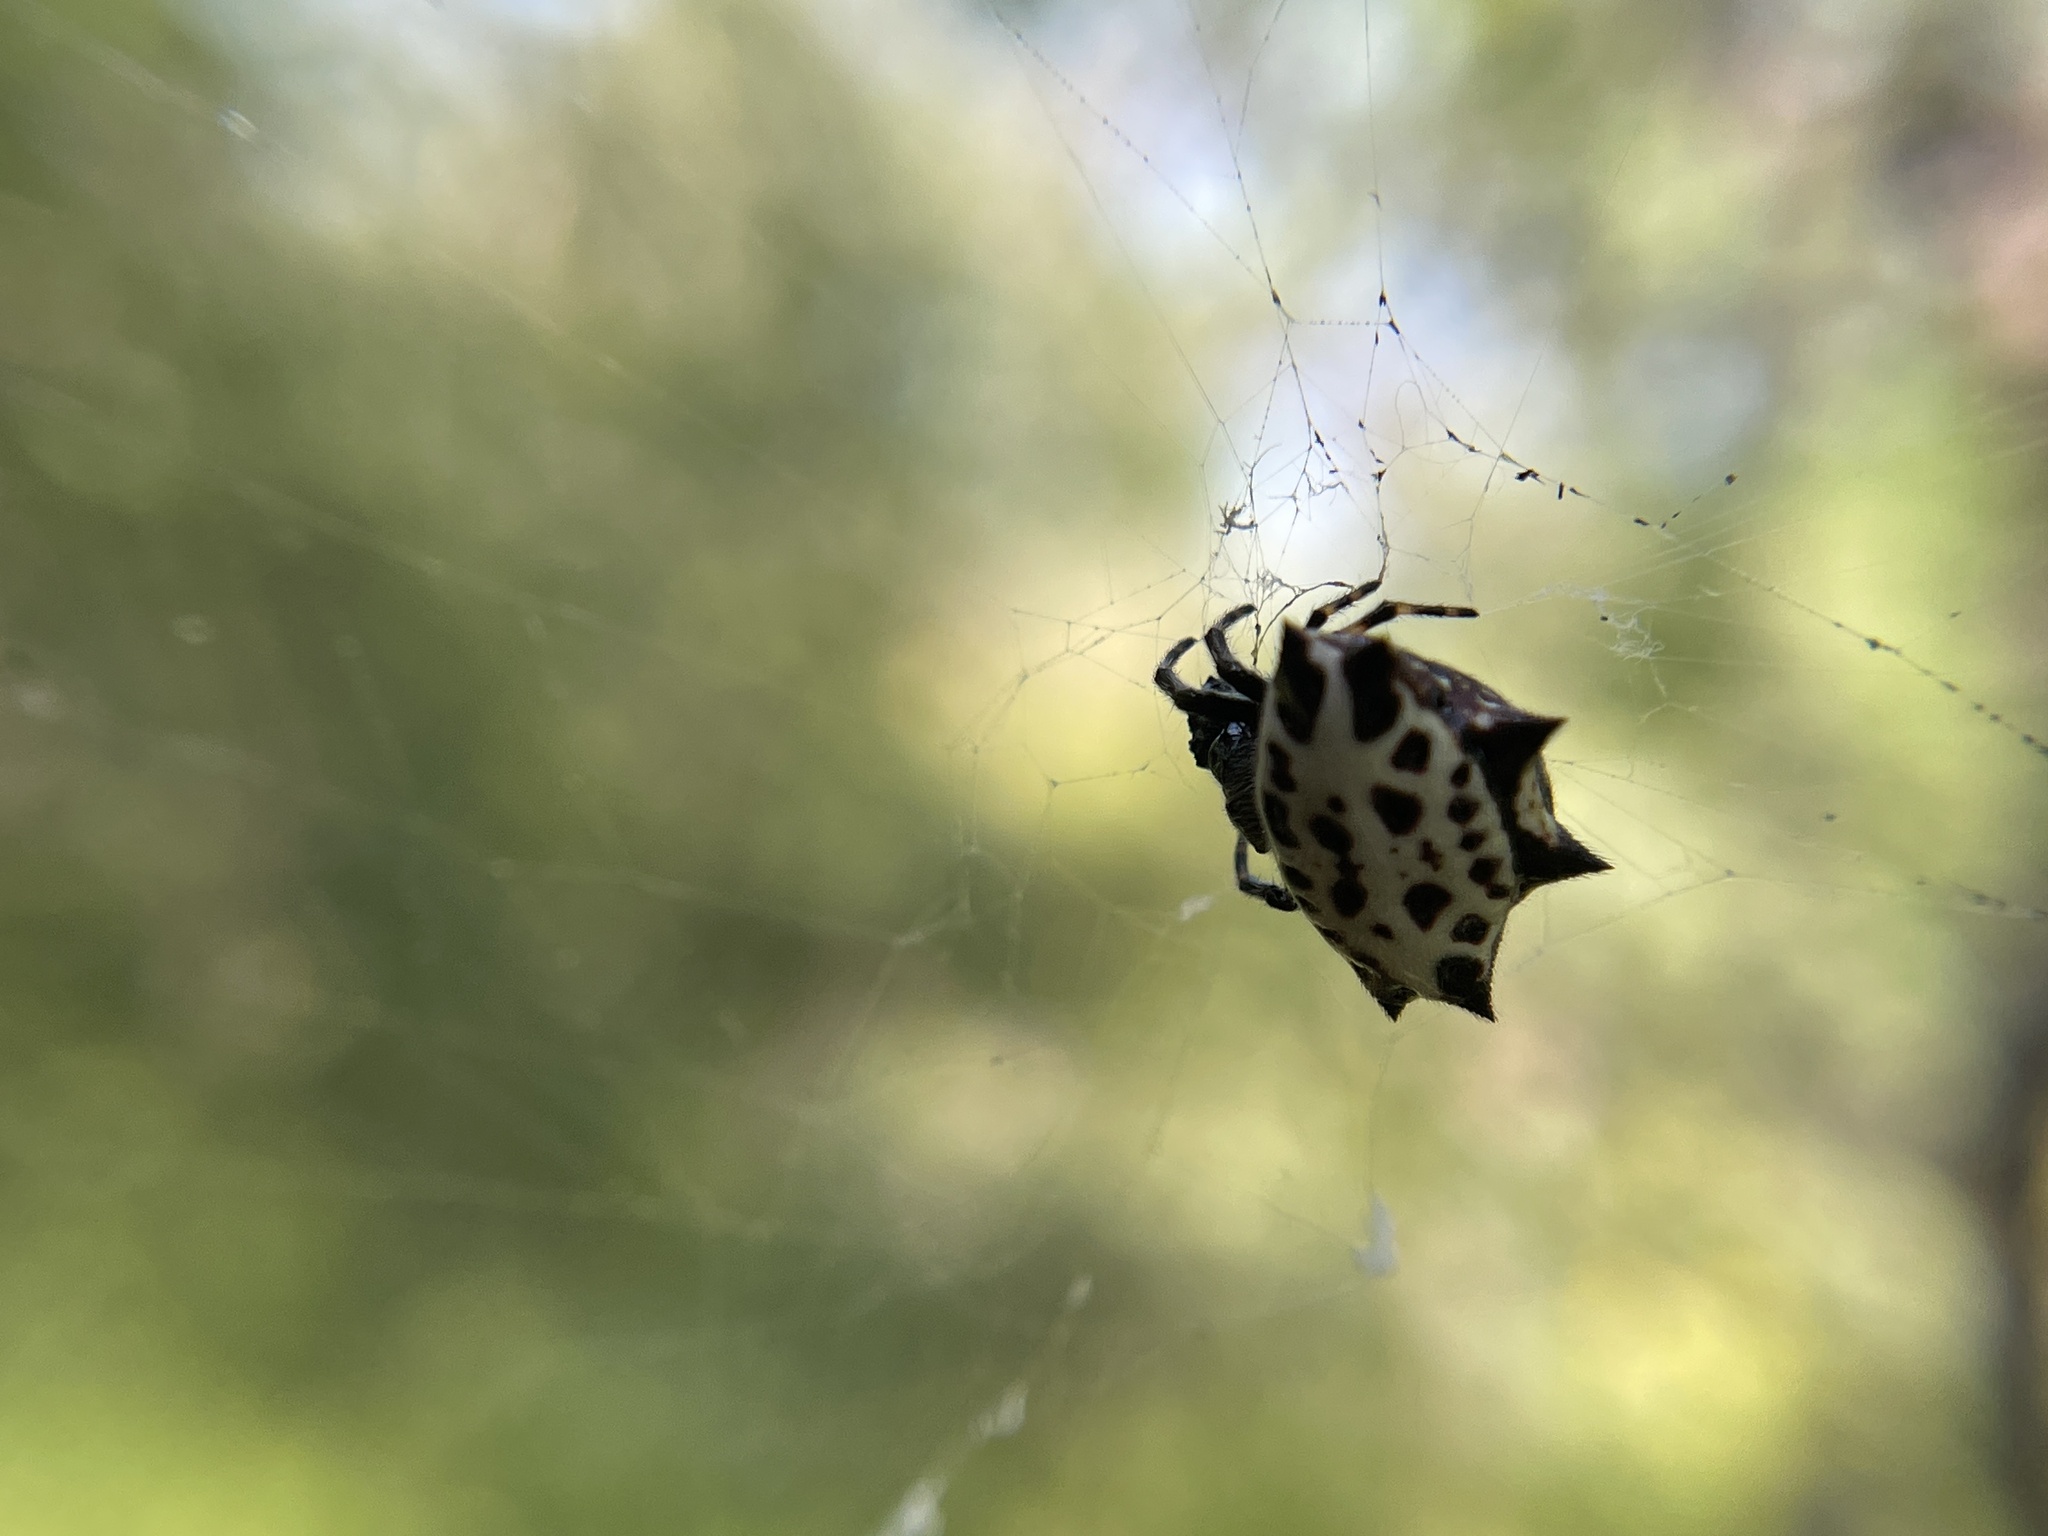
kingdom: Animalia
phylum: Arthropoda
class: Arachnida
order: Araneae
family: Araneidae
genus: Gasteracantha
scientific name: Gasteracantha cancriformis
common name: Orb weavers
